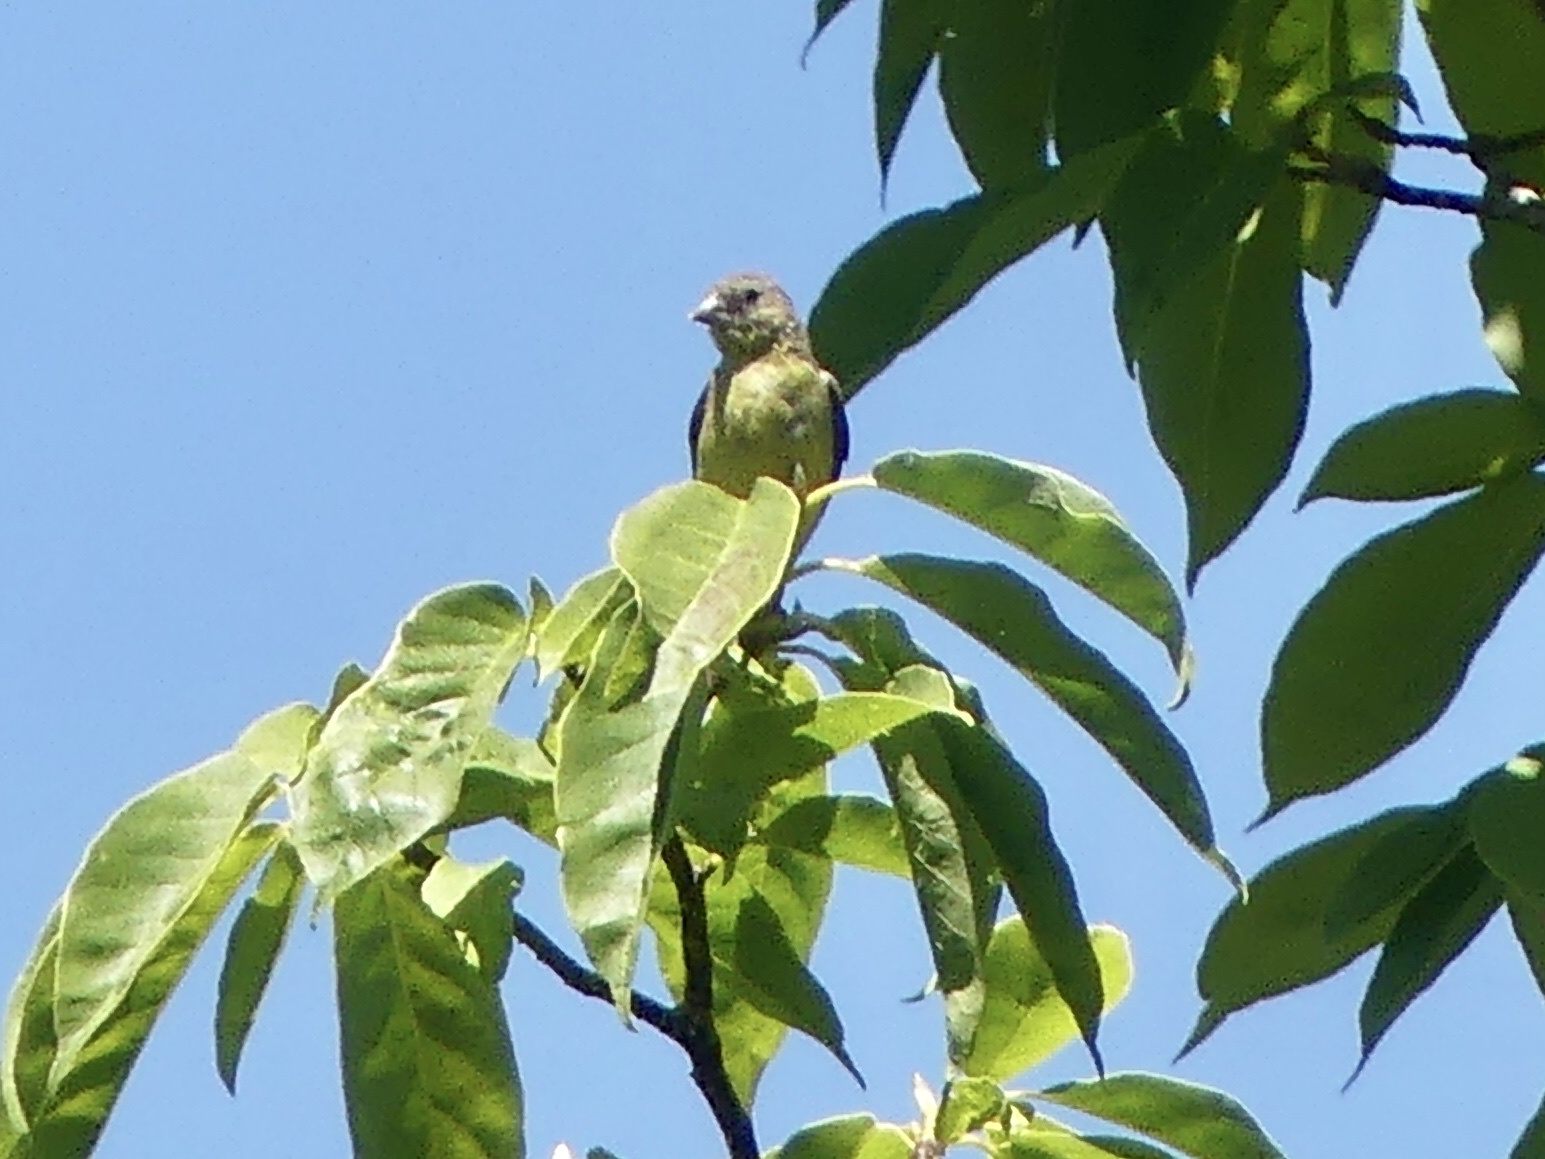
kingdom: Animalia
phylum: Chordata
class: Aves
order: Passeriformes
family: Fringillidae
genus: Spinus
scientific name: Spinus psaltria
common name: Lesser goldfinch
